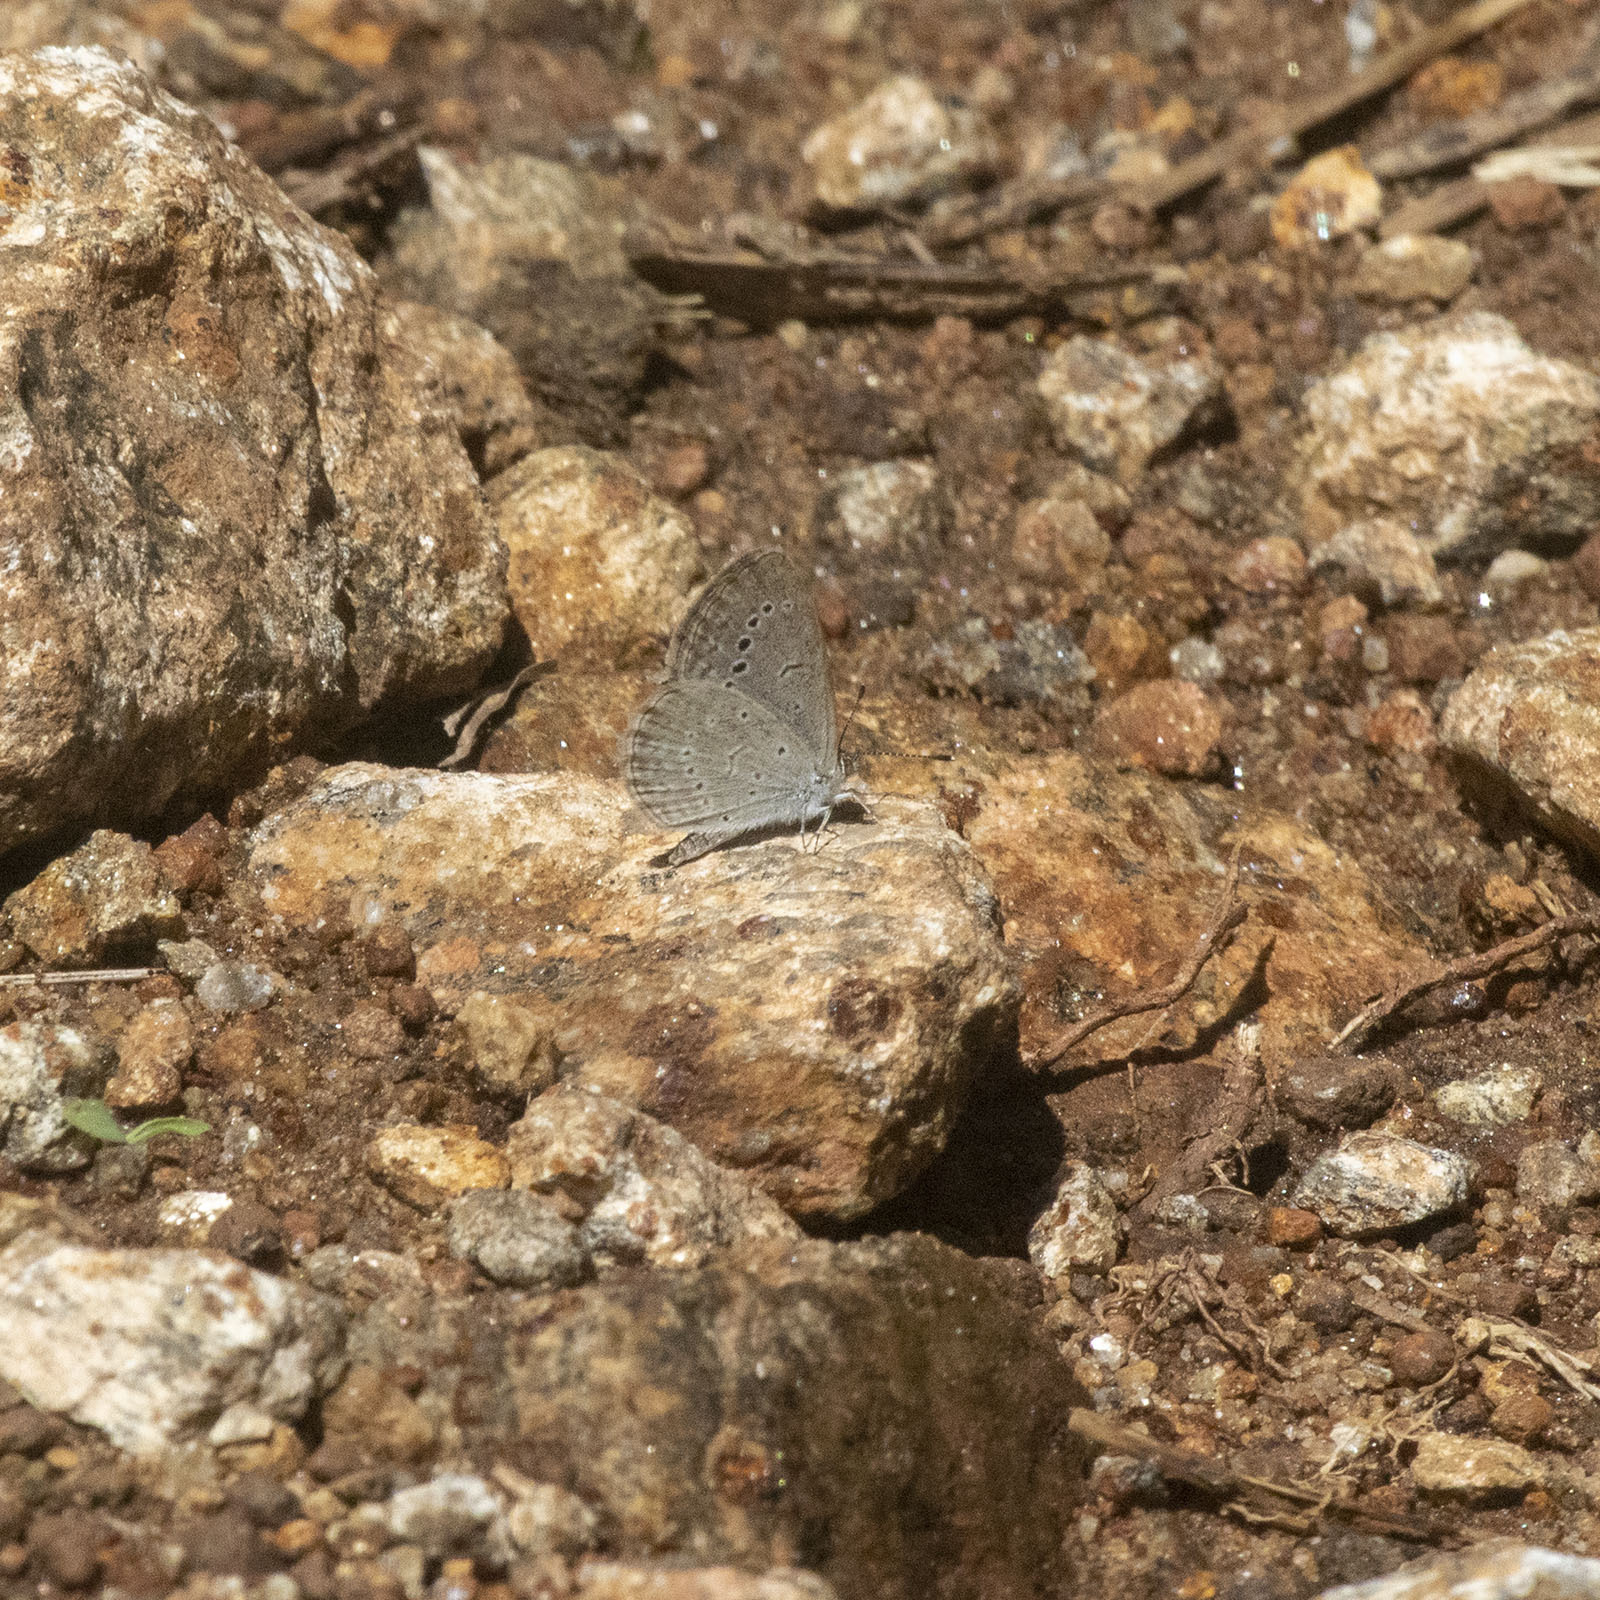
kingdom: Animalia
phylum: Arthropoda
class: Insecta
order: Lepidoptera
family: Lycaenidae
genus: Pseudozizeeria
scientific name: Pseudozizeeria maha
